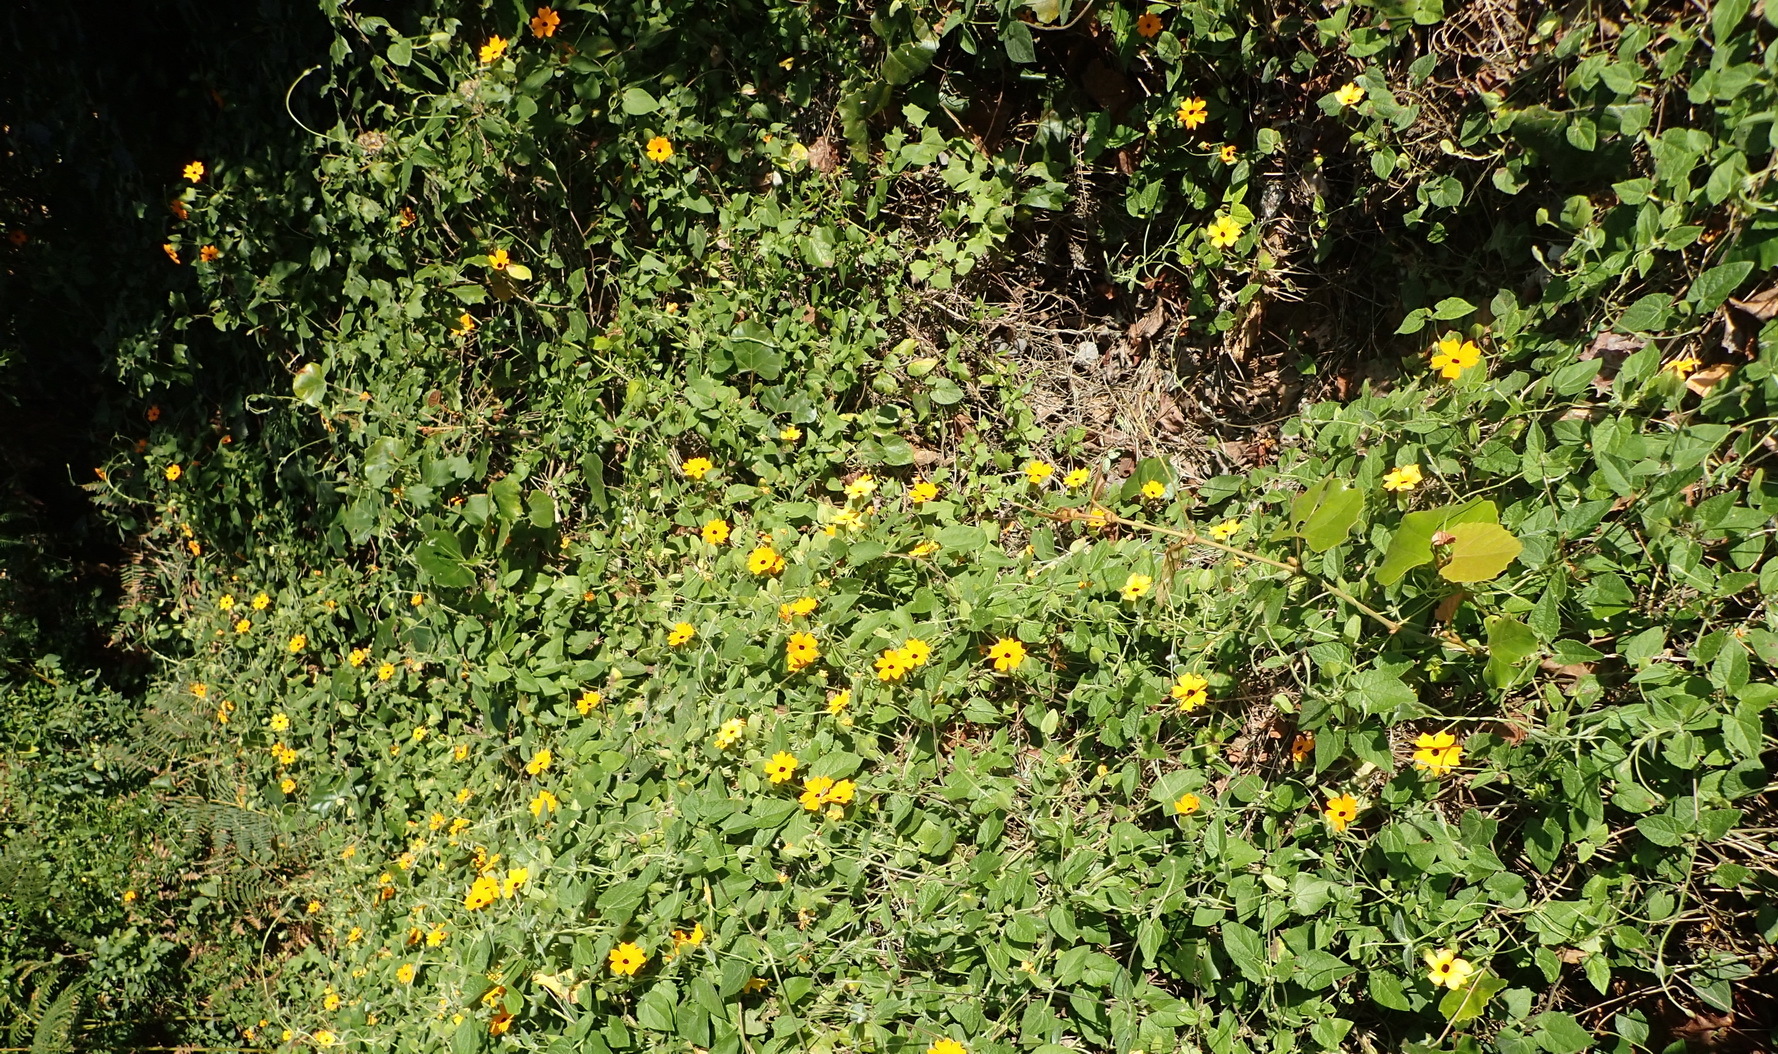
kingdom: Plantae
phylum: Tracheophyta
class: Magnoliopsida
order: Lamiales
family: Acanthaceae
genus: Thunbergia
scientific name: Thunbergia alata
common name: Blackeyed susan vine
